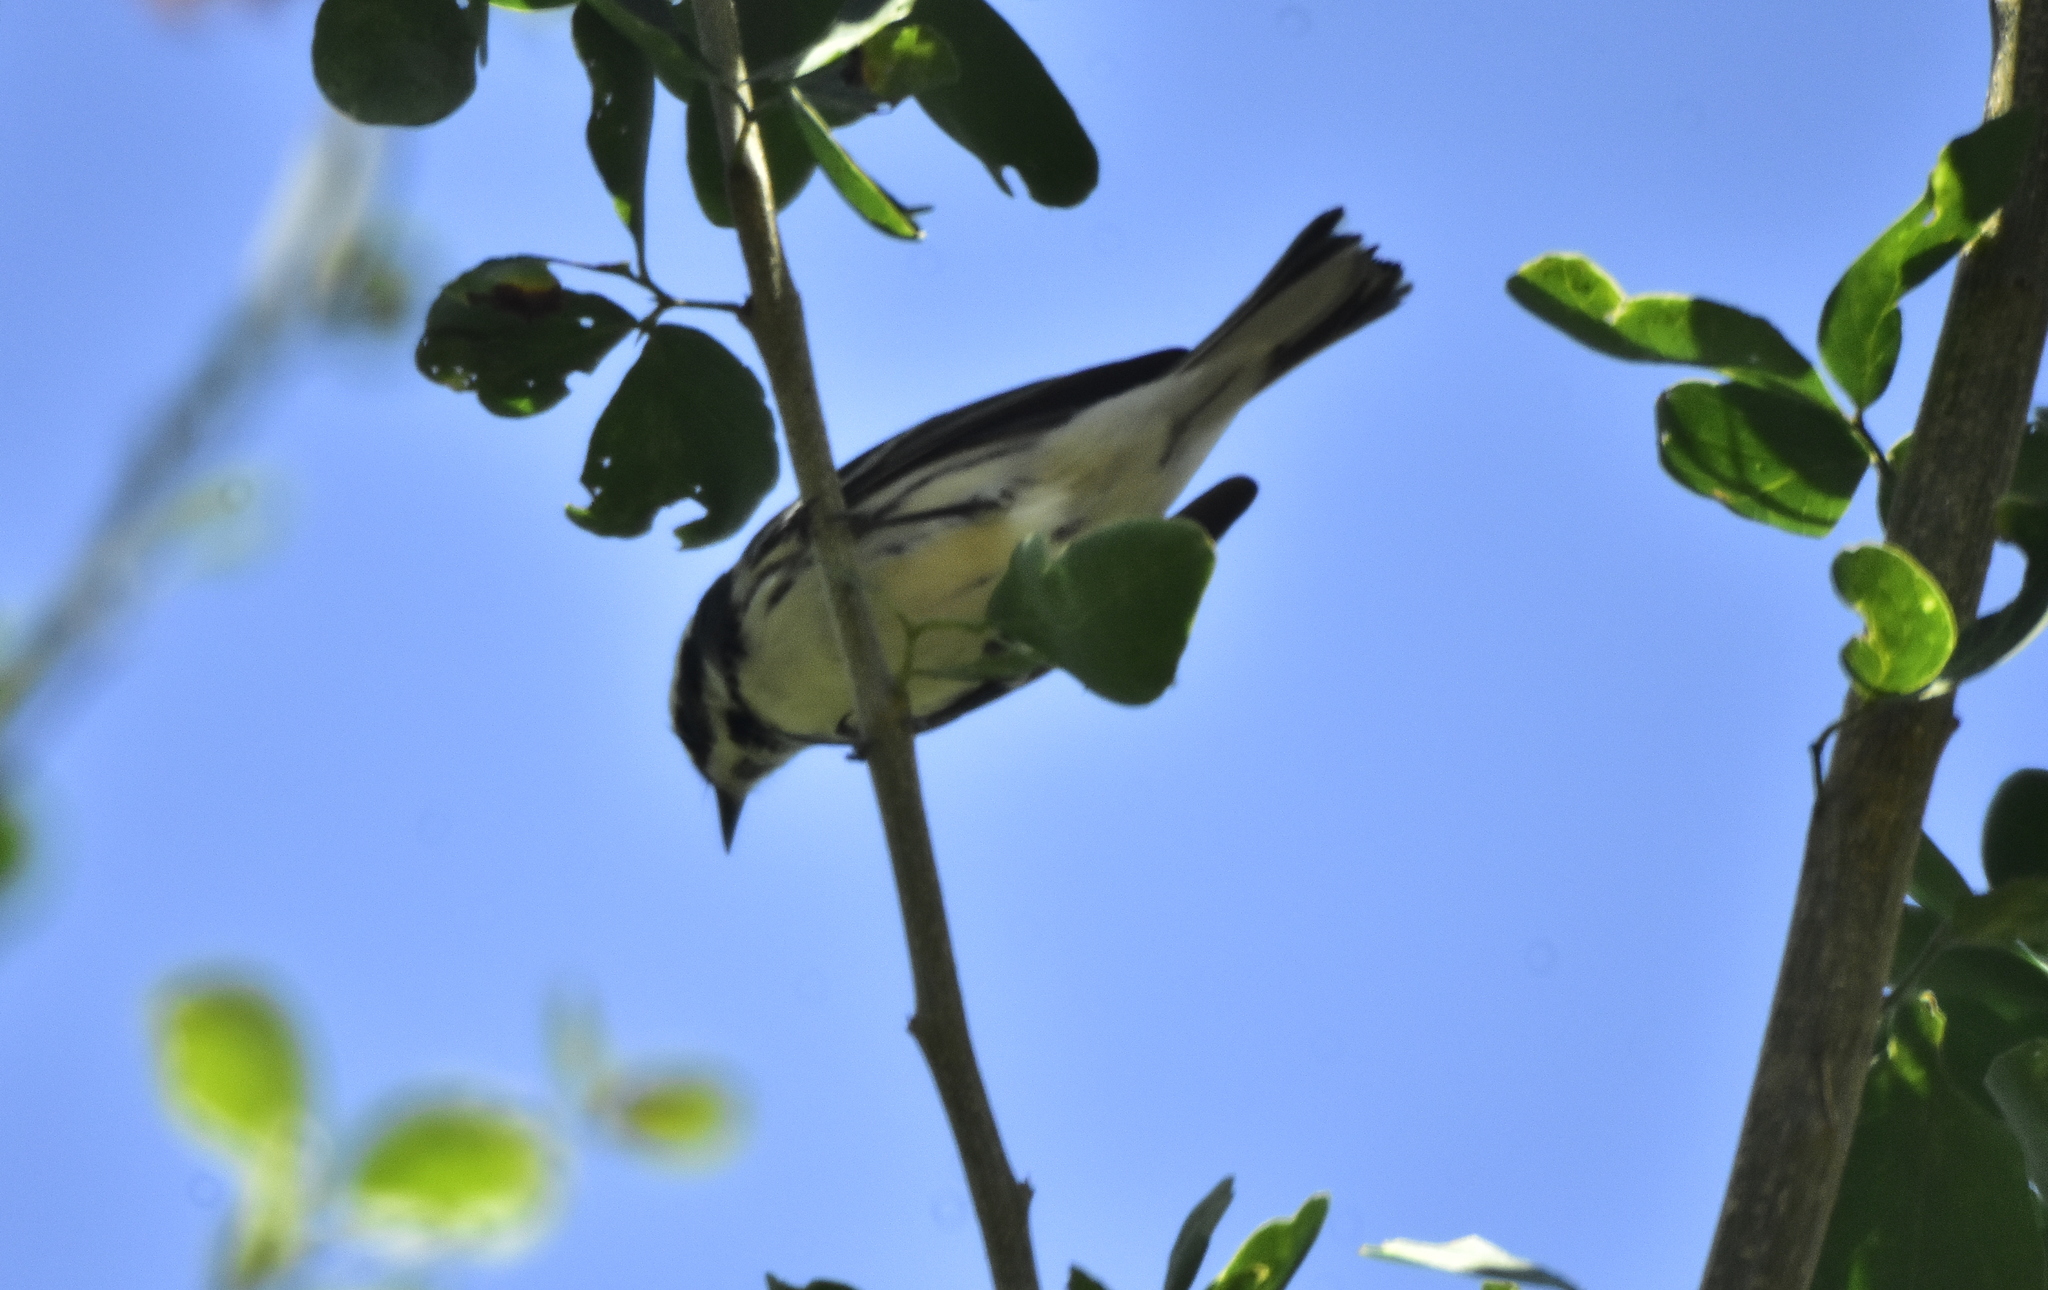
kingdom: Animalia
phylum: Chordata
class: Aves
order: Passeriformes
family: Parulidae
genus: Setophaga
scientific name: Setophaga nigrescens
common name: Black-throated gray warbler
